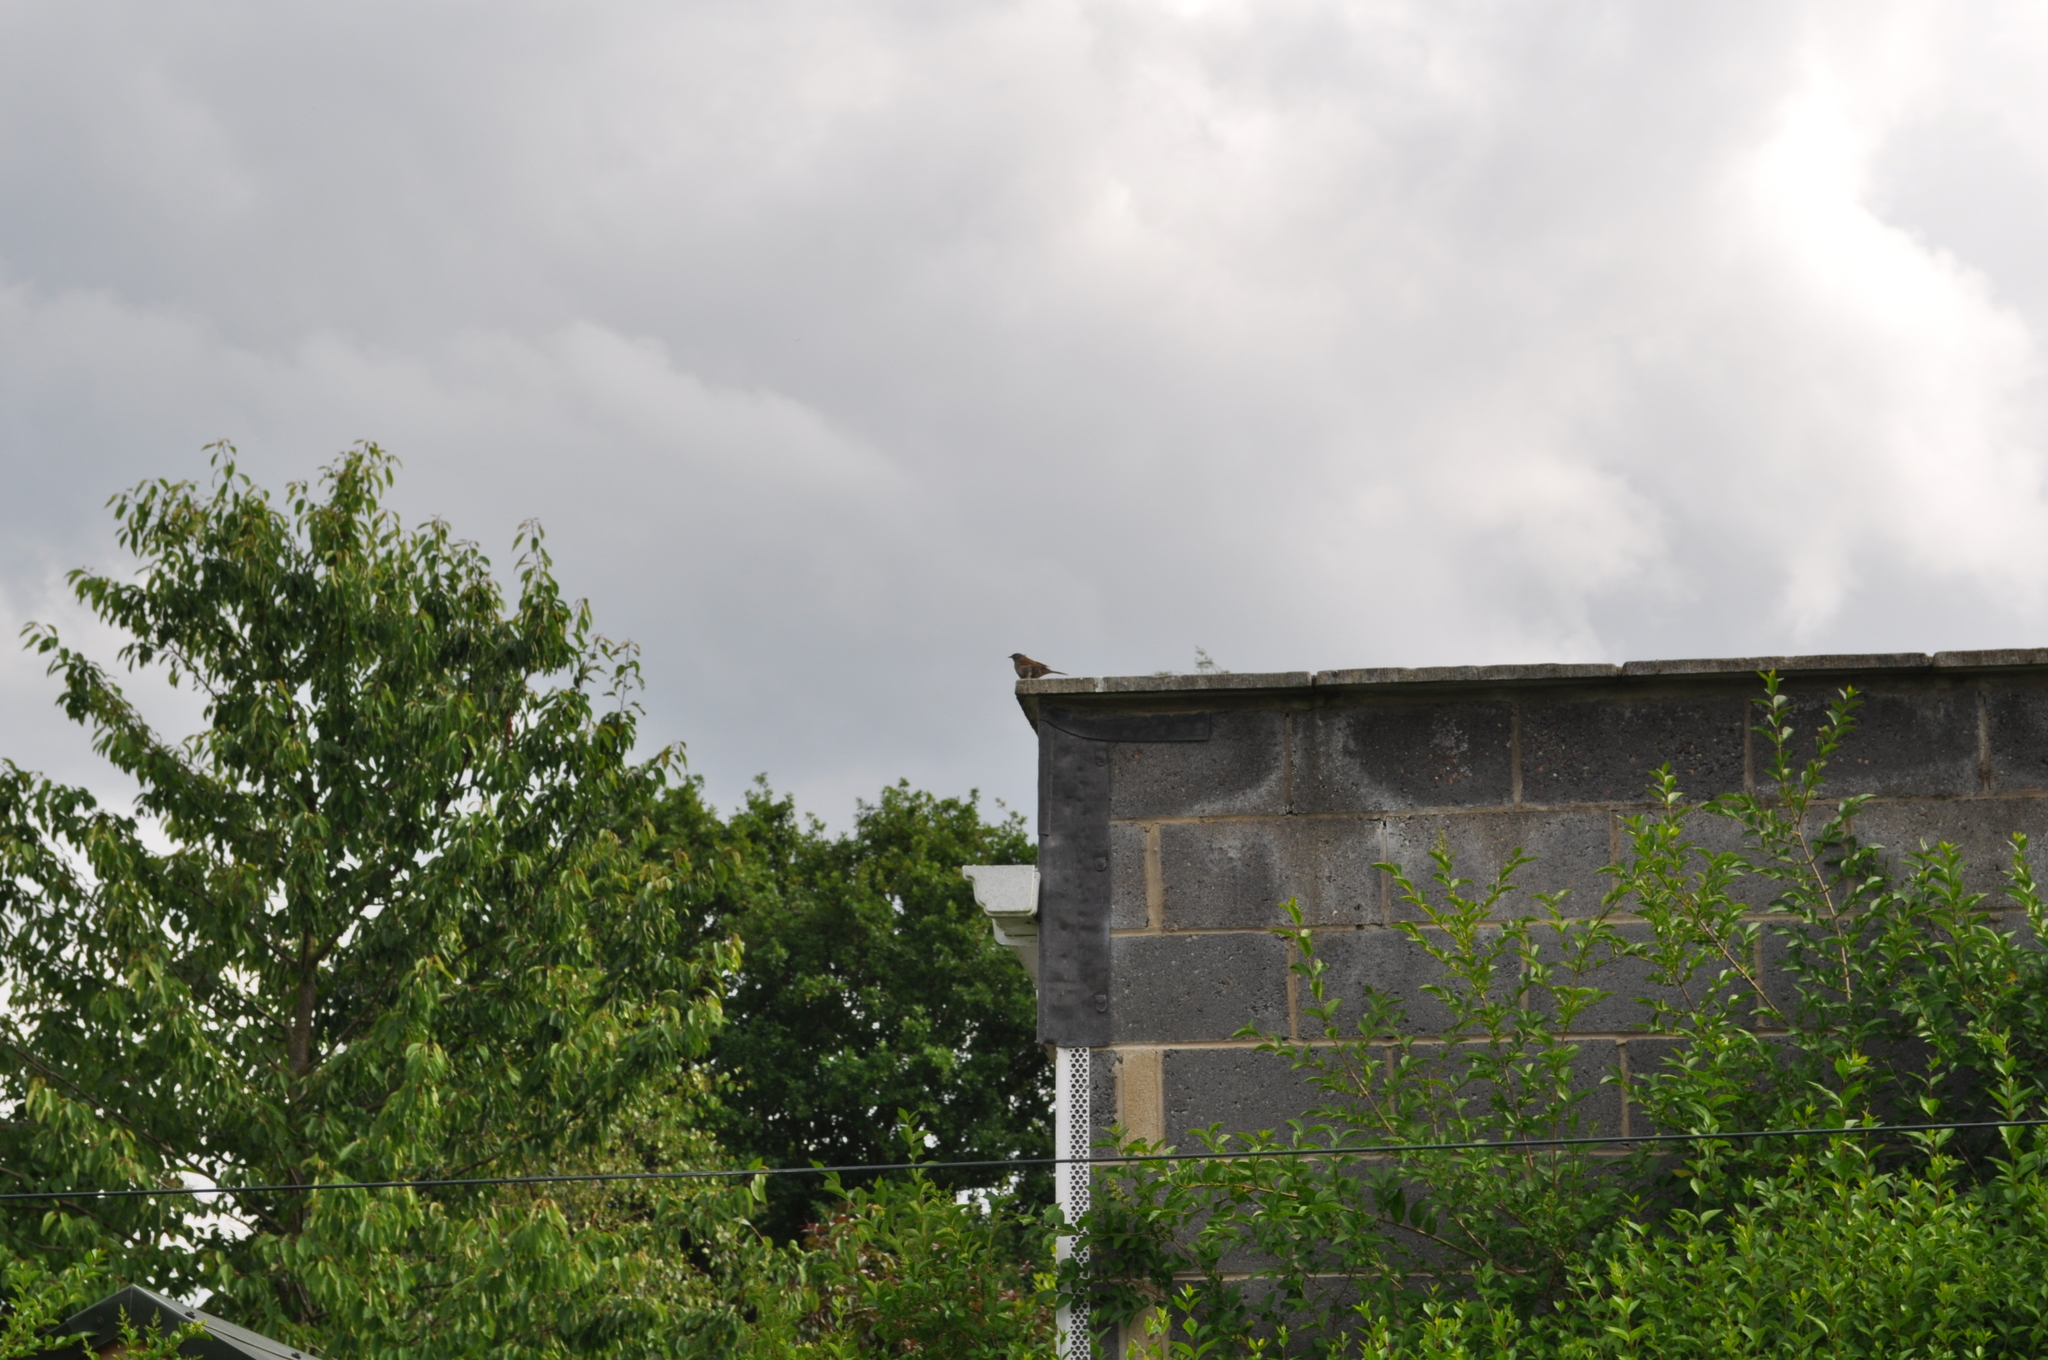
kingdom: Animalia
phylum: Chordata
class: Aves
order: Passeriformes
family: Prunellidae
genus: Prunella
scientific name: Prunella modularis
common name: Dunnock
